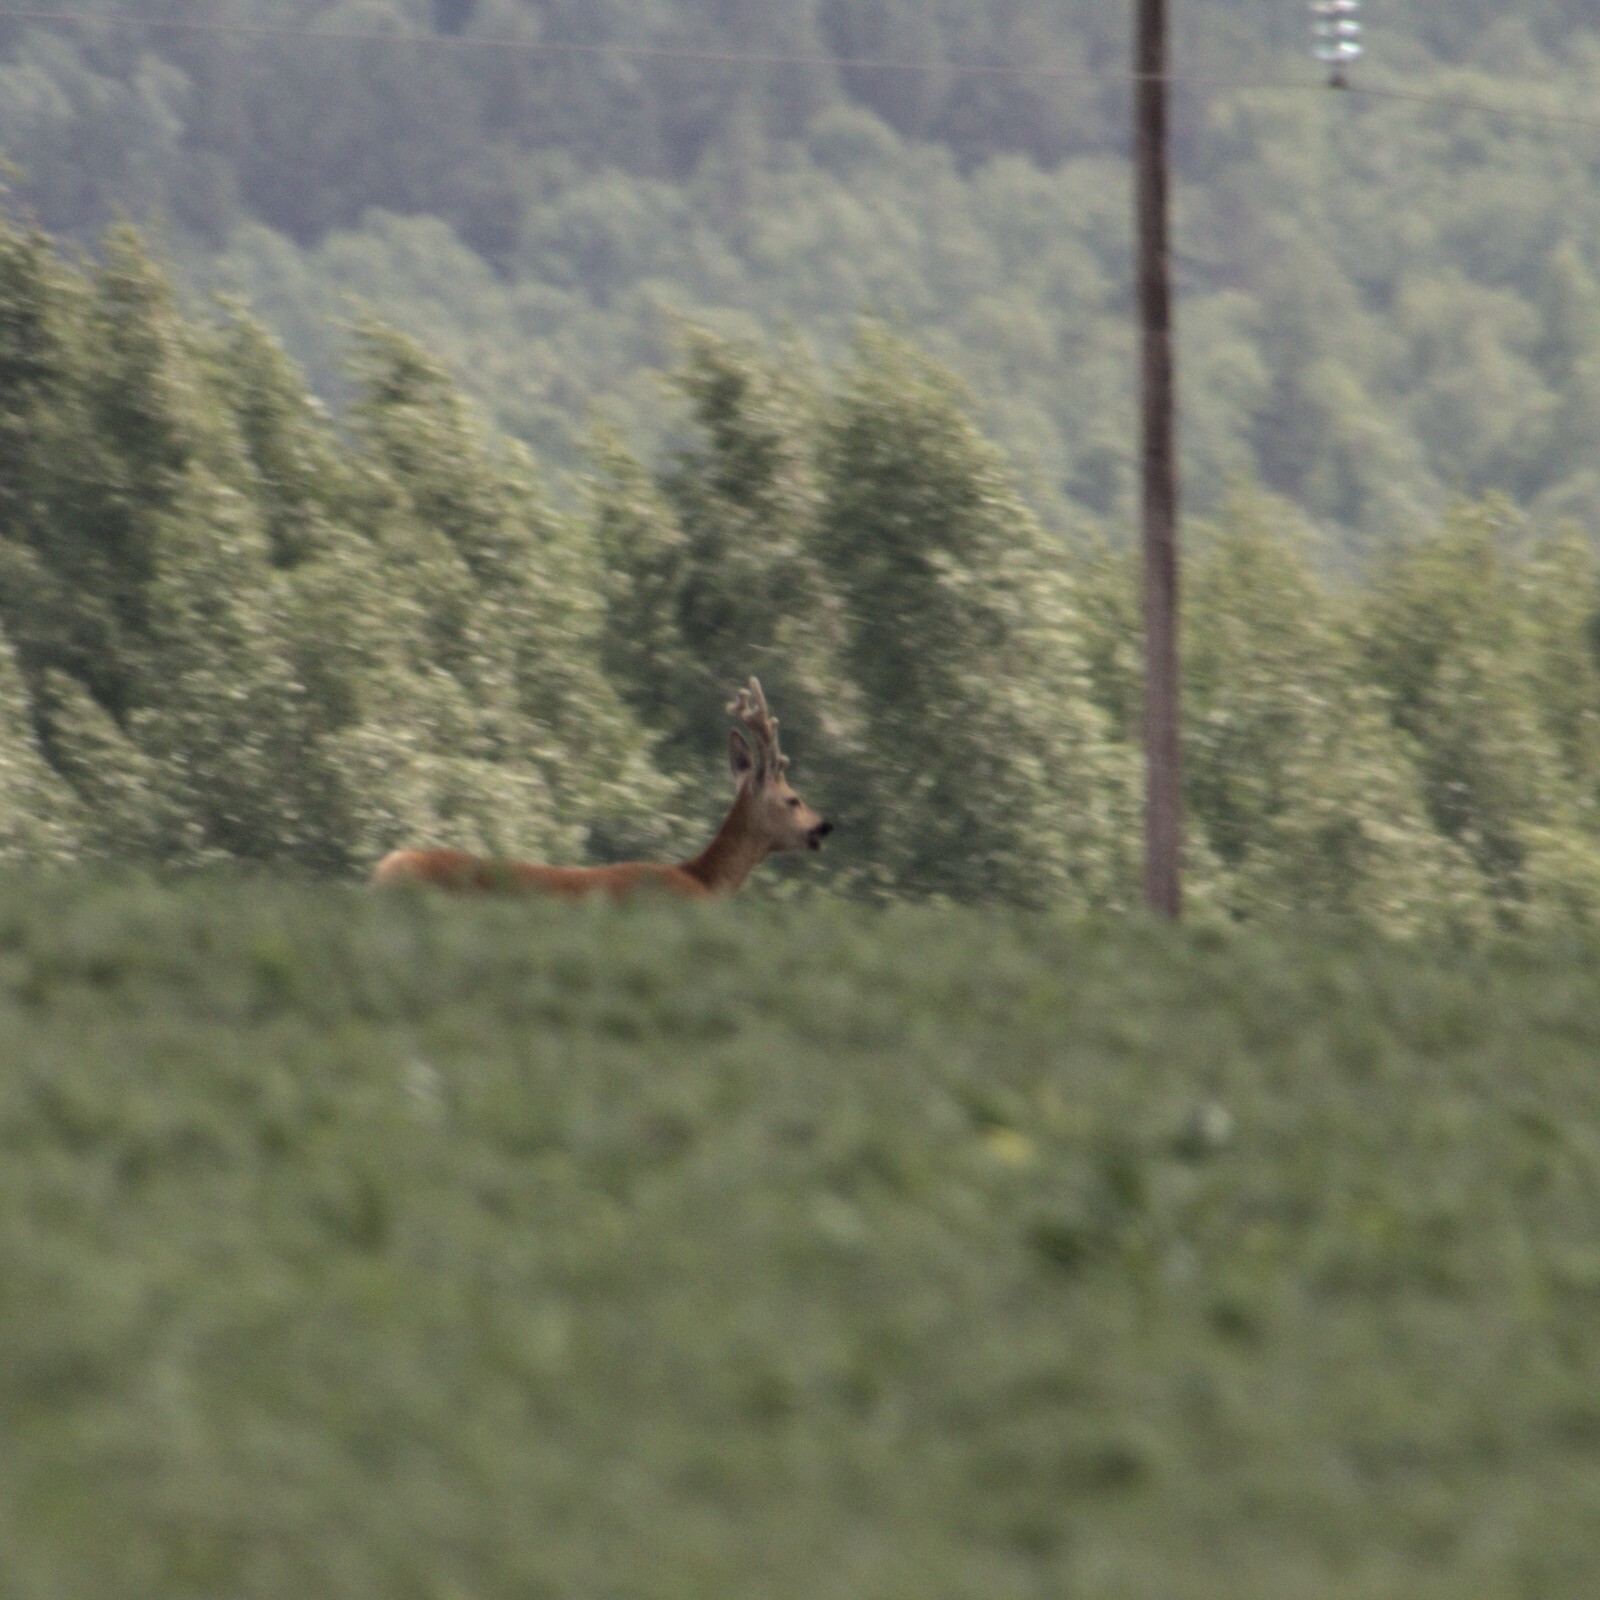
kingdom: Animalia
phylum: Chordata
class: Mammalia
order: Artiodactyla
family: Cervidae
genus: Capreolus
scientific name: Capreolus pygargus
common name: Siberian roe
